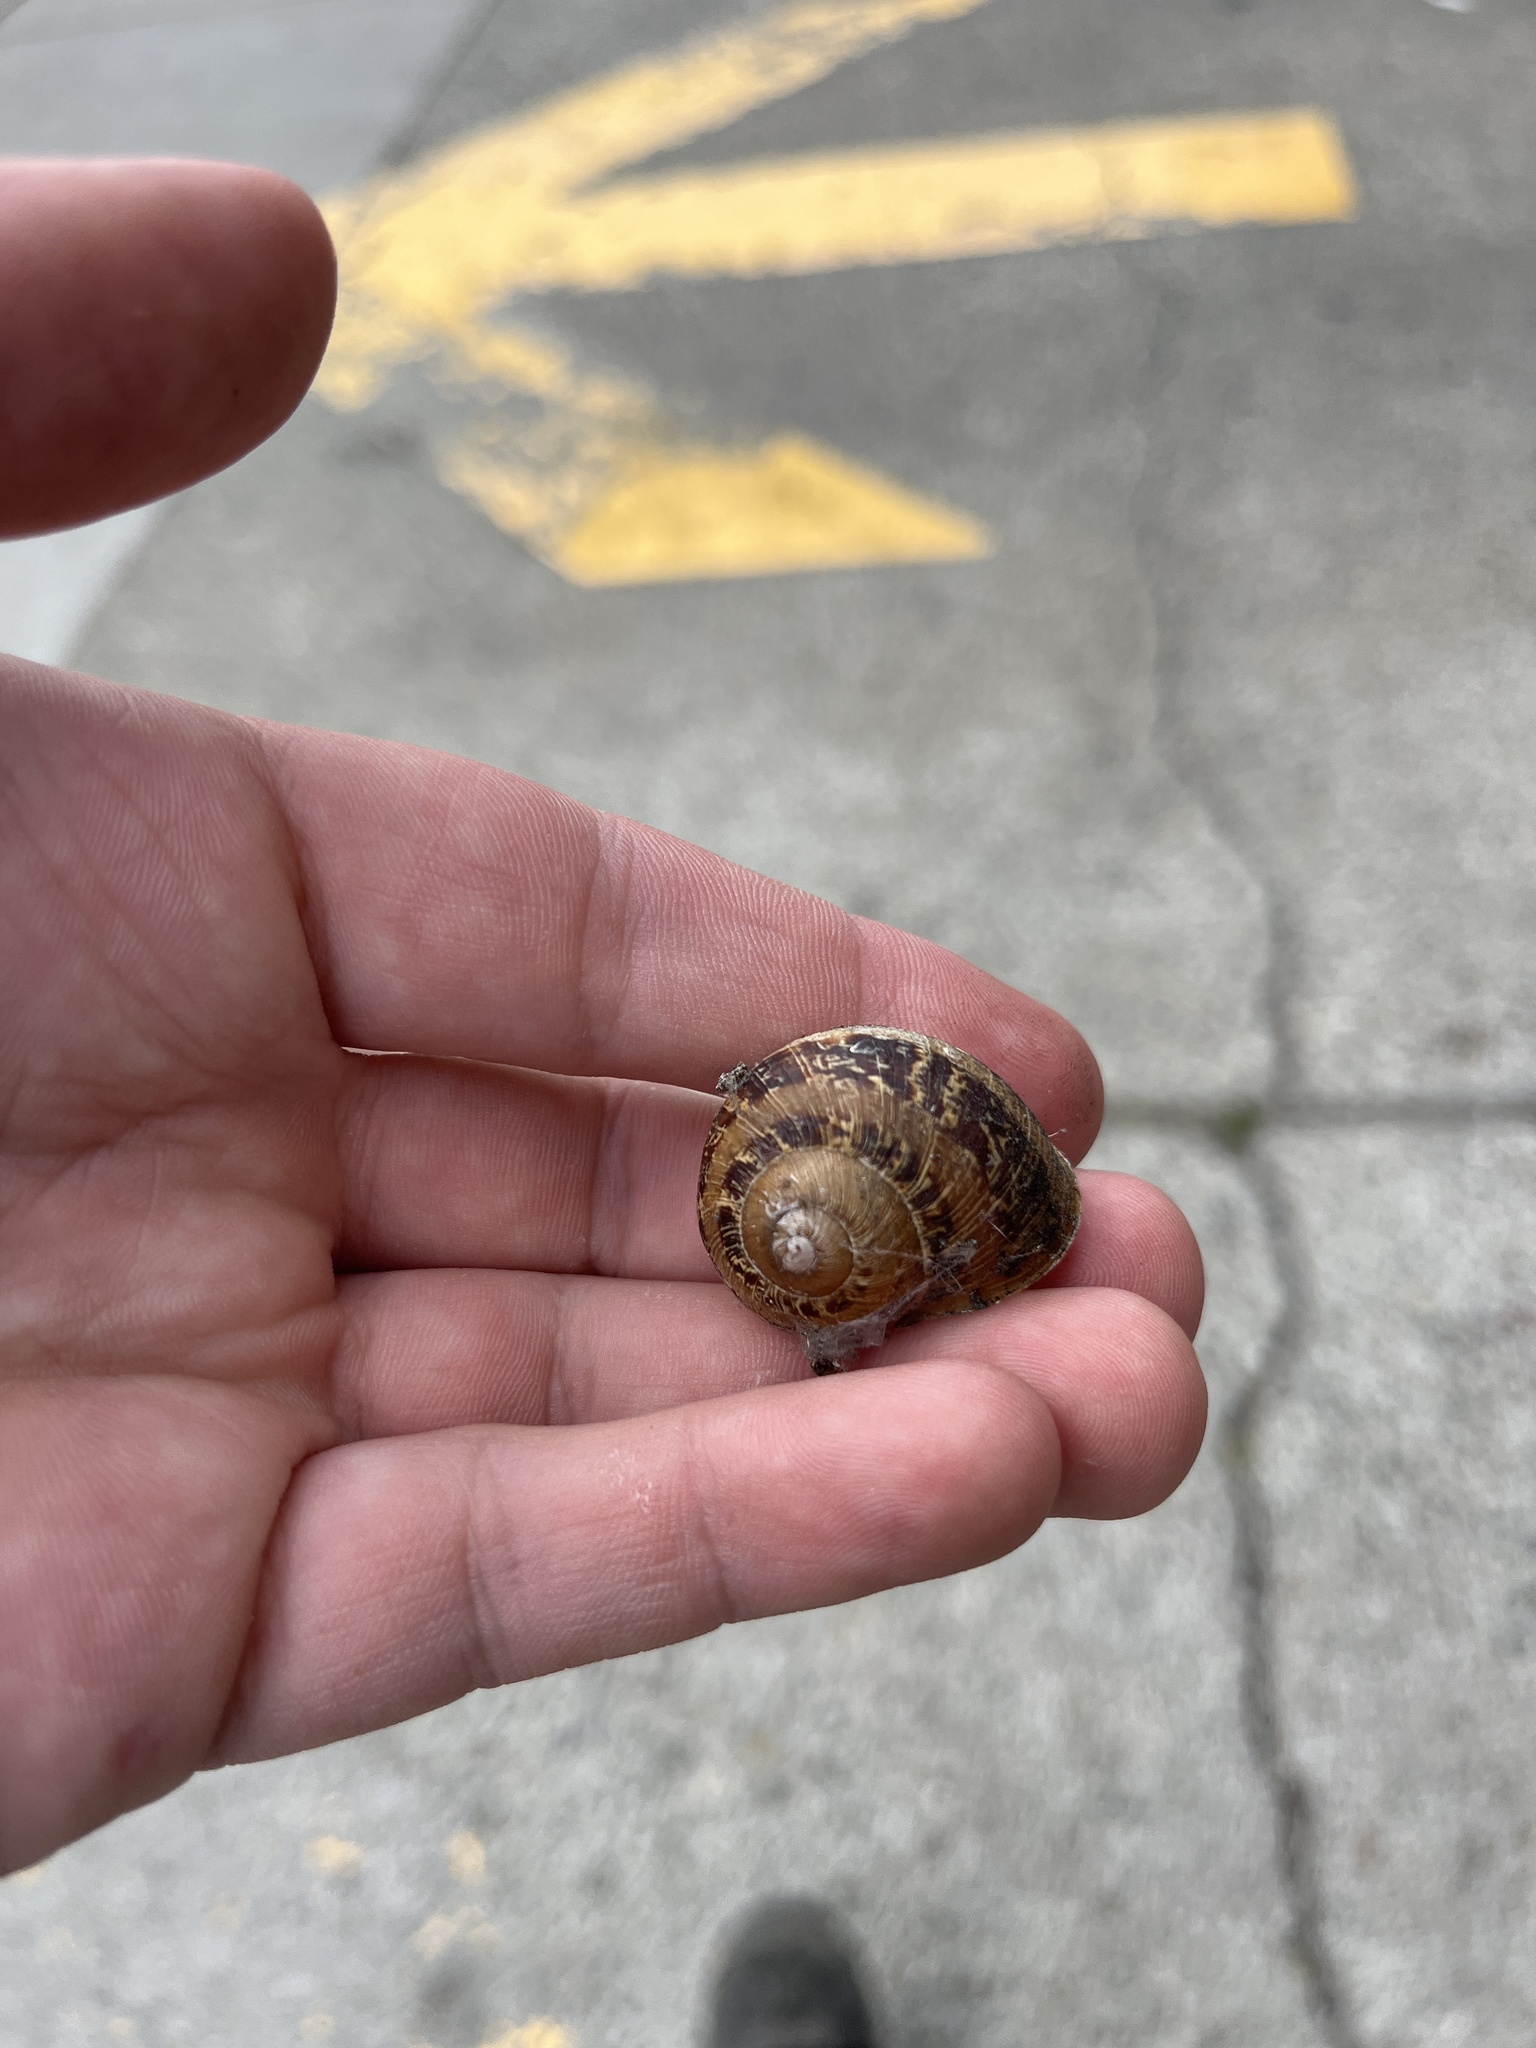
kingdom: Animalia
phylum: Mollusca
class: Gastropoda
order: Stylommatophora
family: Helicidae
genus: Cornu
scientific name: Cornu aspersum
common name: Brown garden snail
